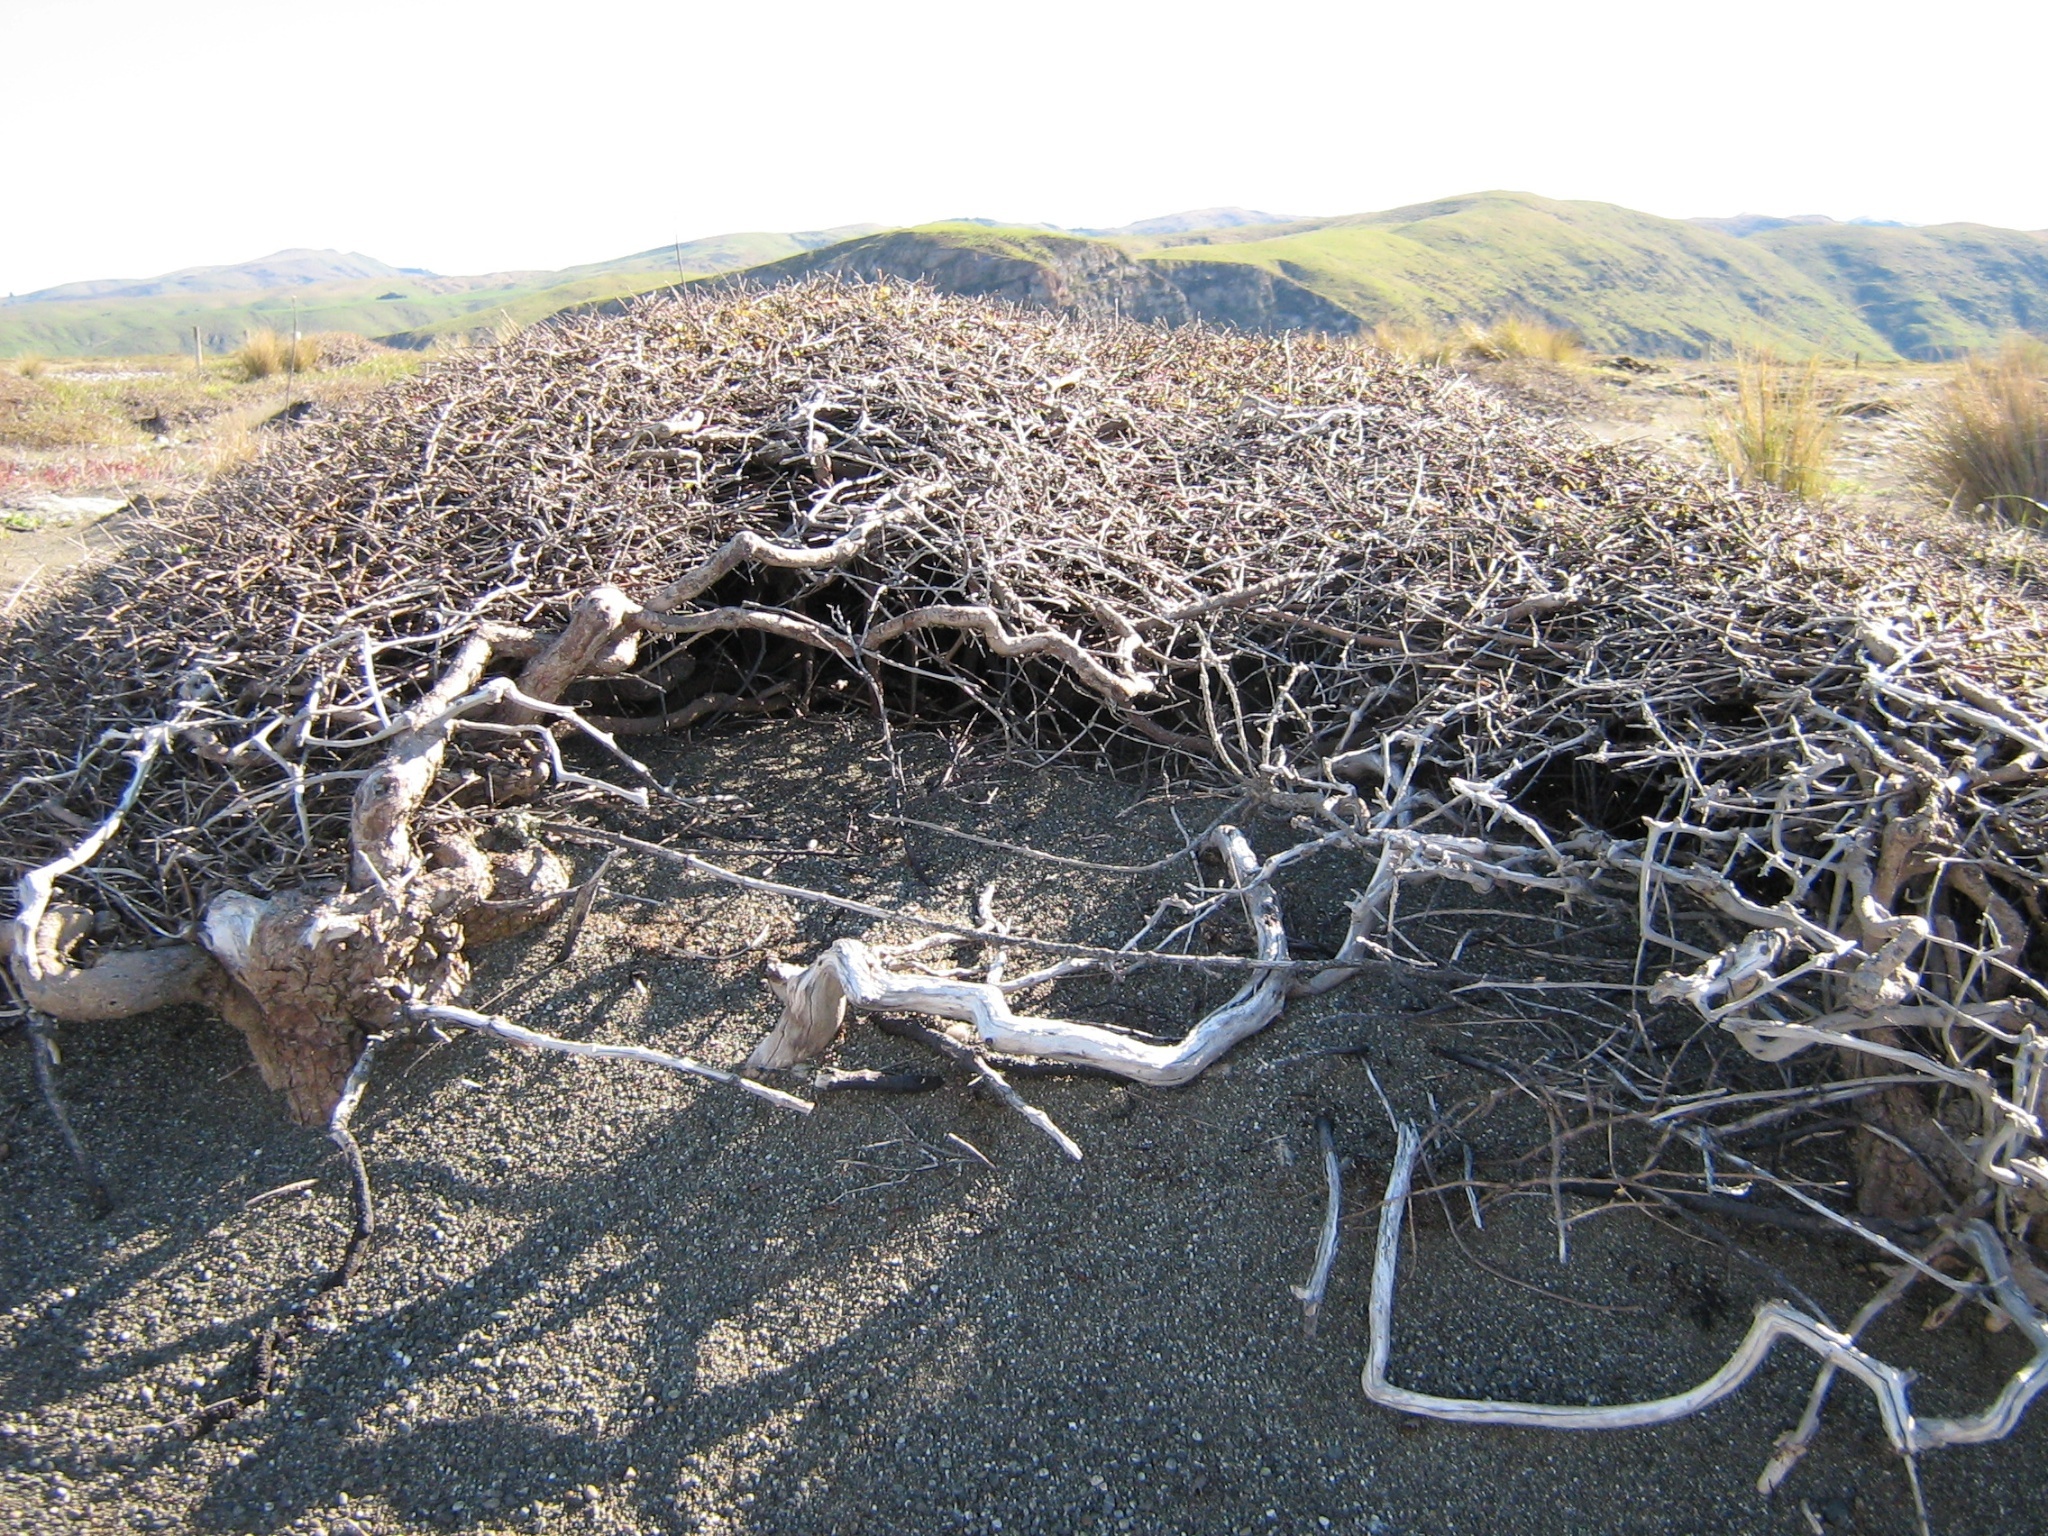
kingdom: Plantae
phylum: Tracheophyta
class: Magnoliopsida
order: Gentianales
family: Rubiaceae
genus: Coprosma
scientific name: Coprosma propinqua
